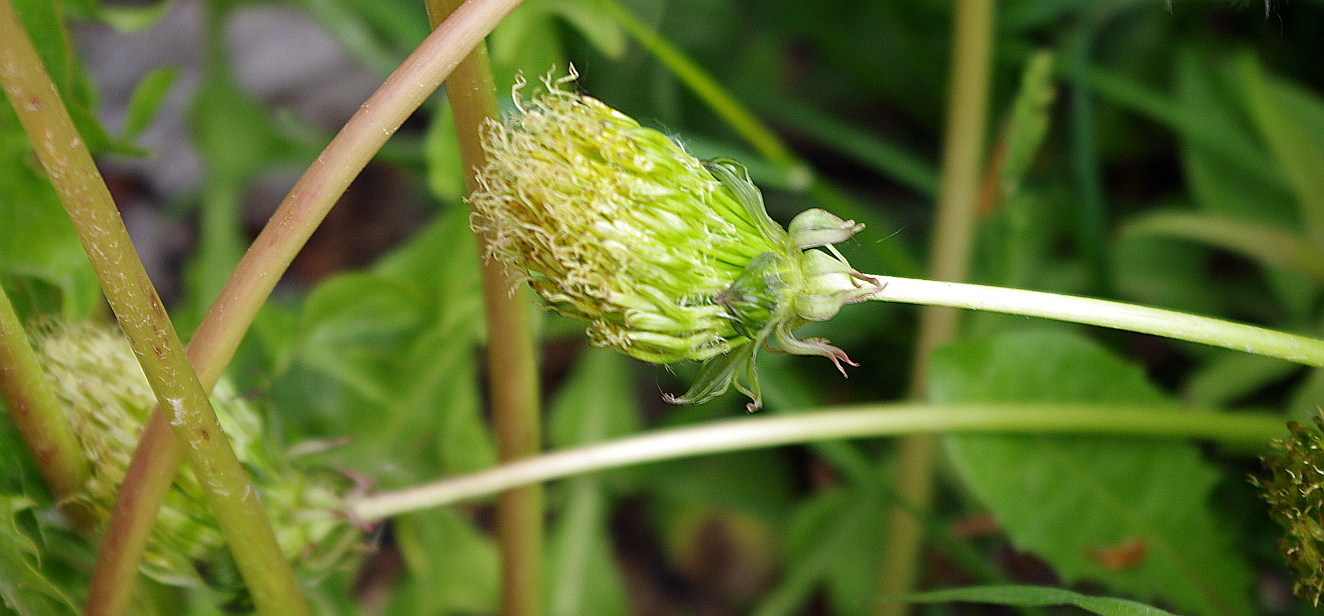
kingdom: Plantae
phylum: Tracheophyta
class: Magnoliopsida
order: Asterales
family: Asteraceae
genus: Taraxacum
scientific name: Taraxacum officinale
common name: Common dandelion
